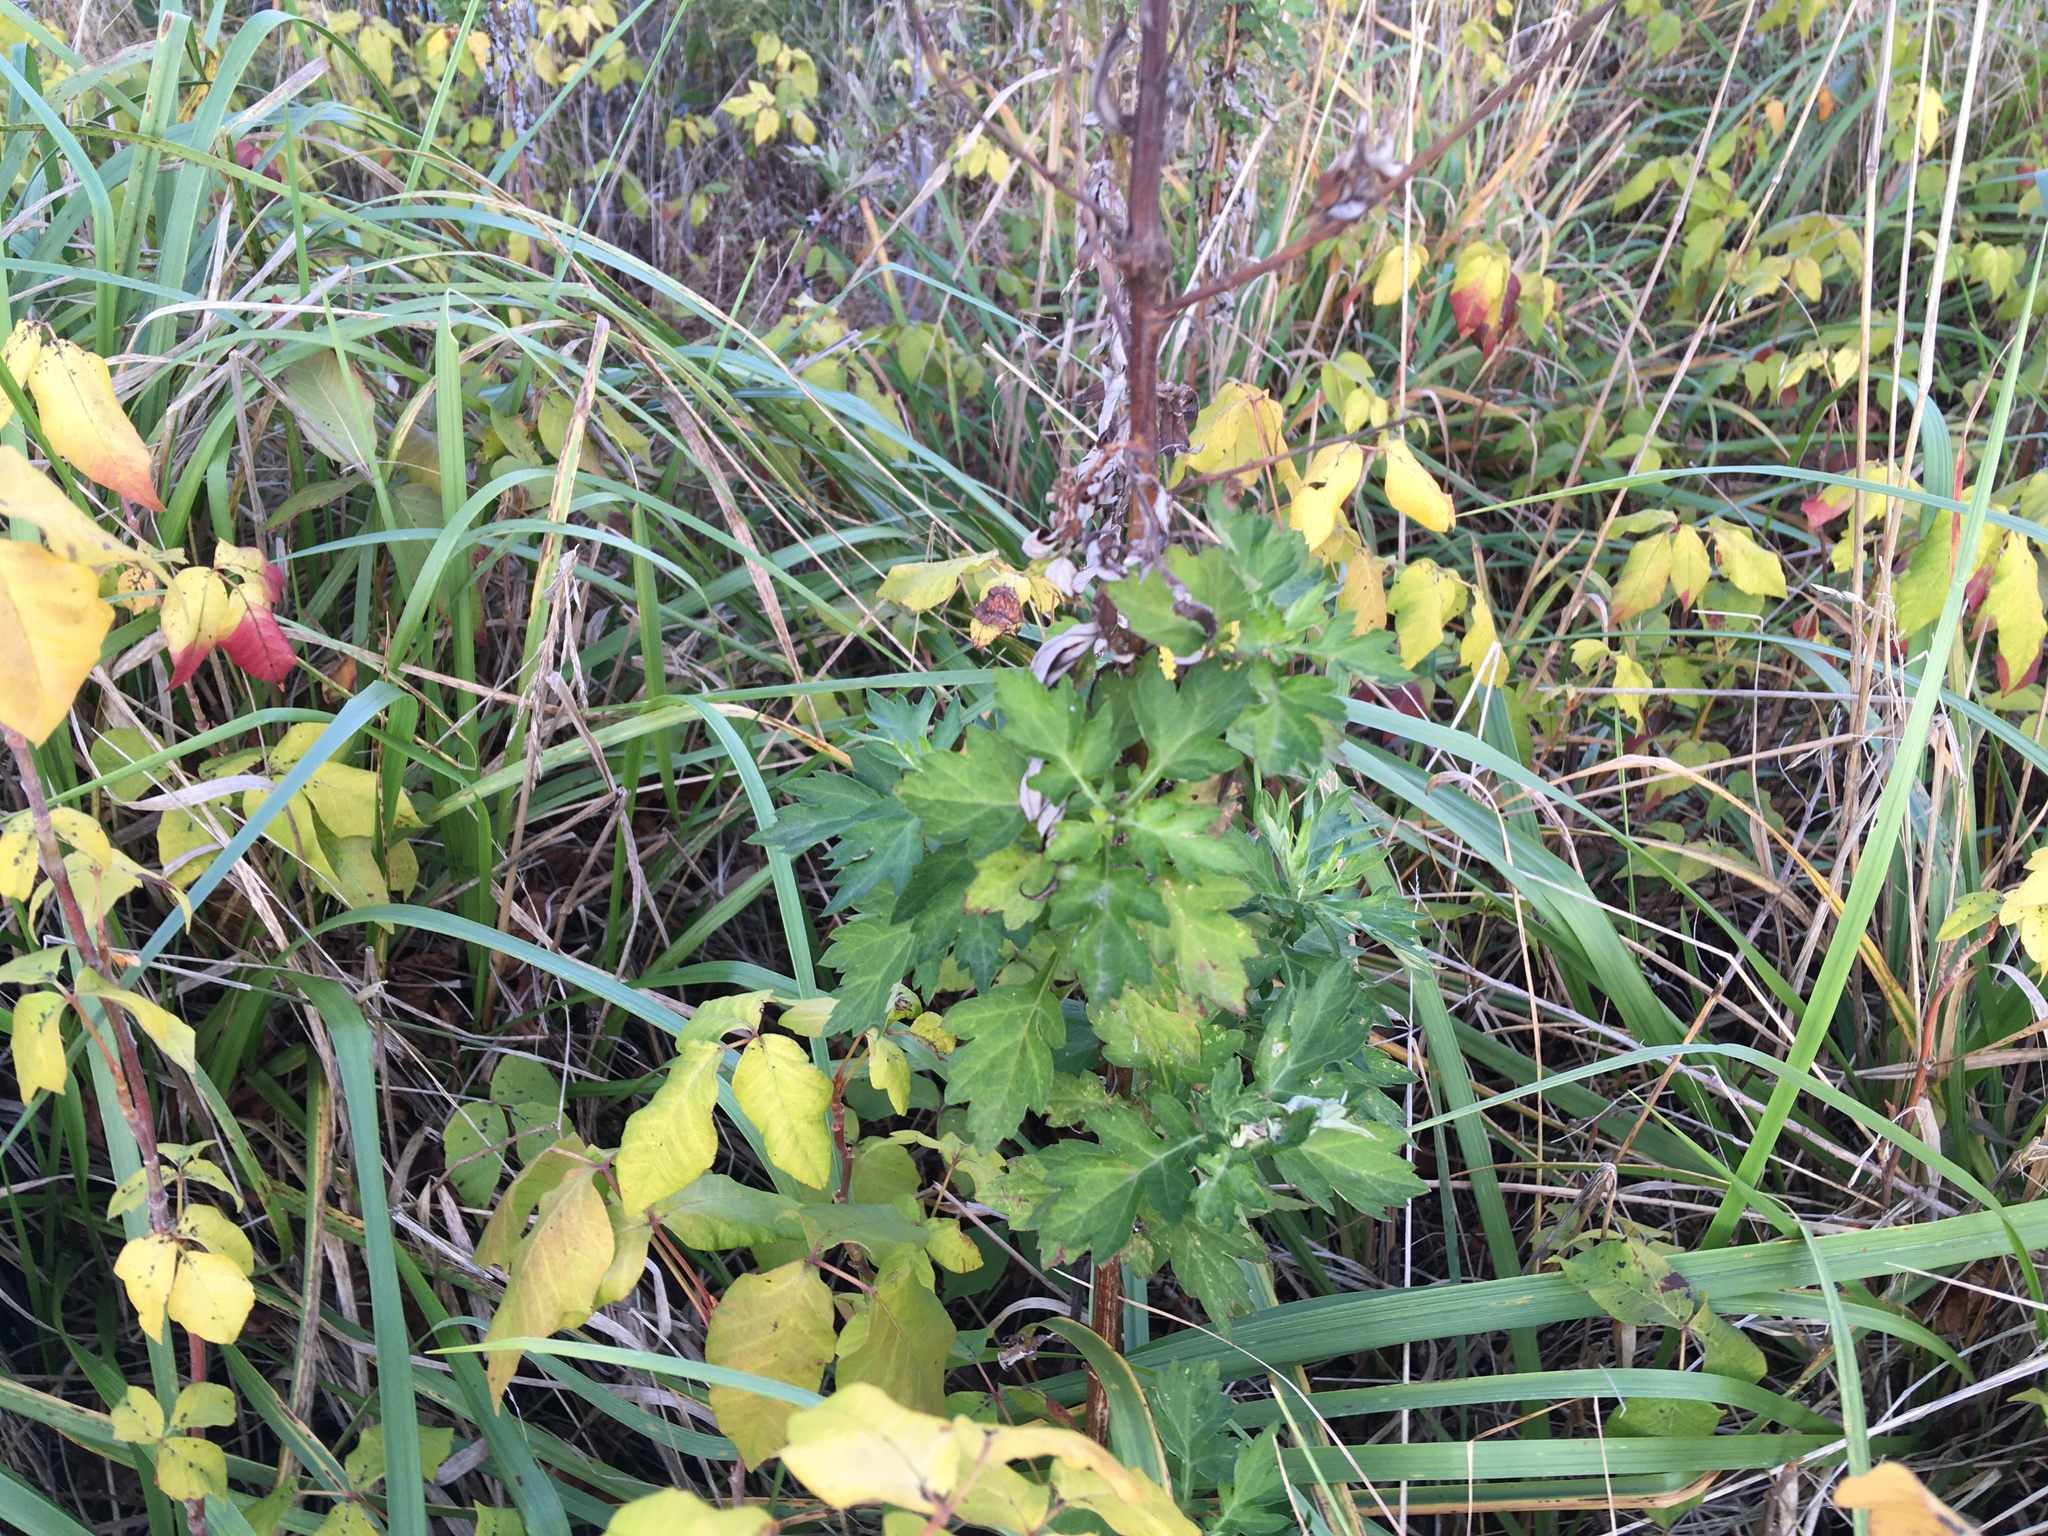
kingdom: Plantae
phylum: Tracheophyta
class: Magnoliopsida
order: Asterales
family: Asteraceae
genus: Artemisia
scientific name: Artemisia vulgaris
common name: Mugwort
